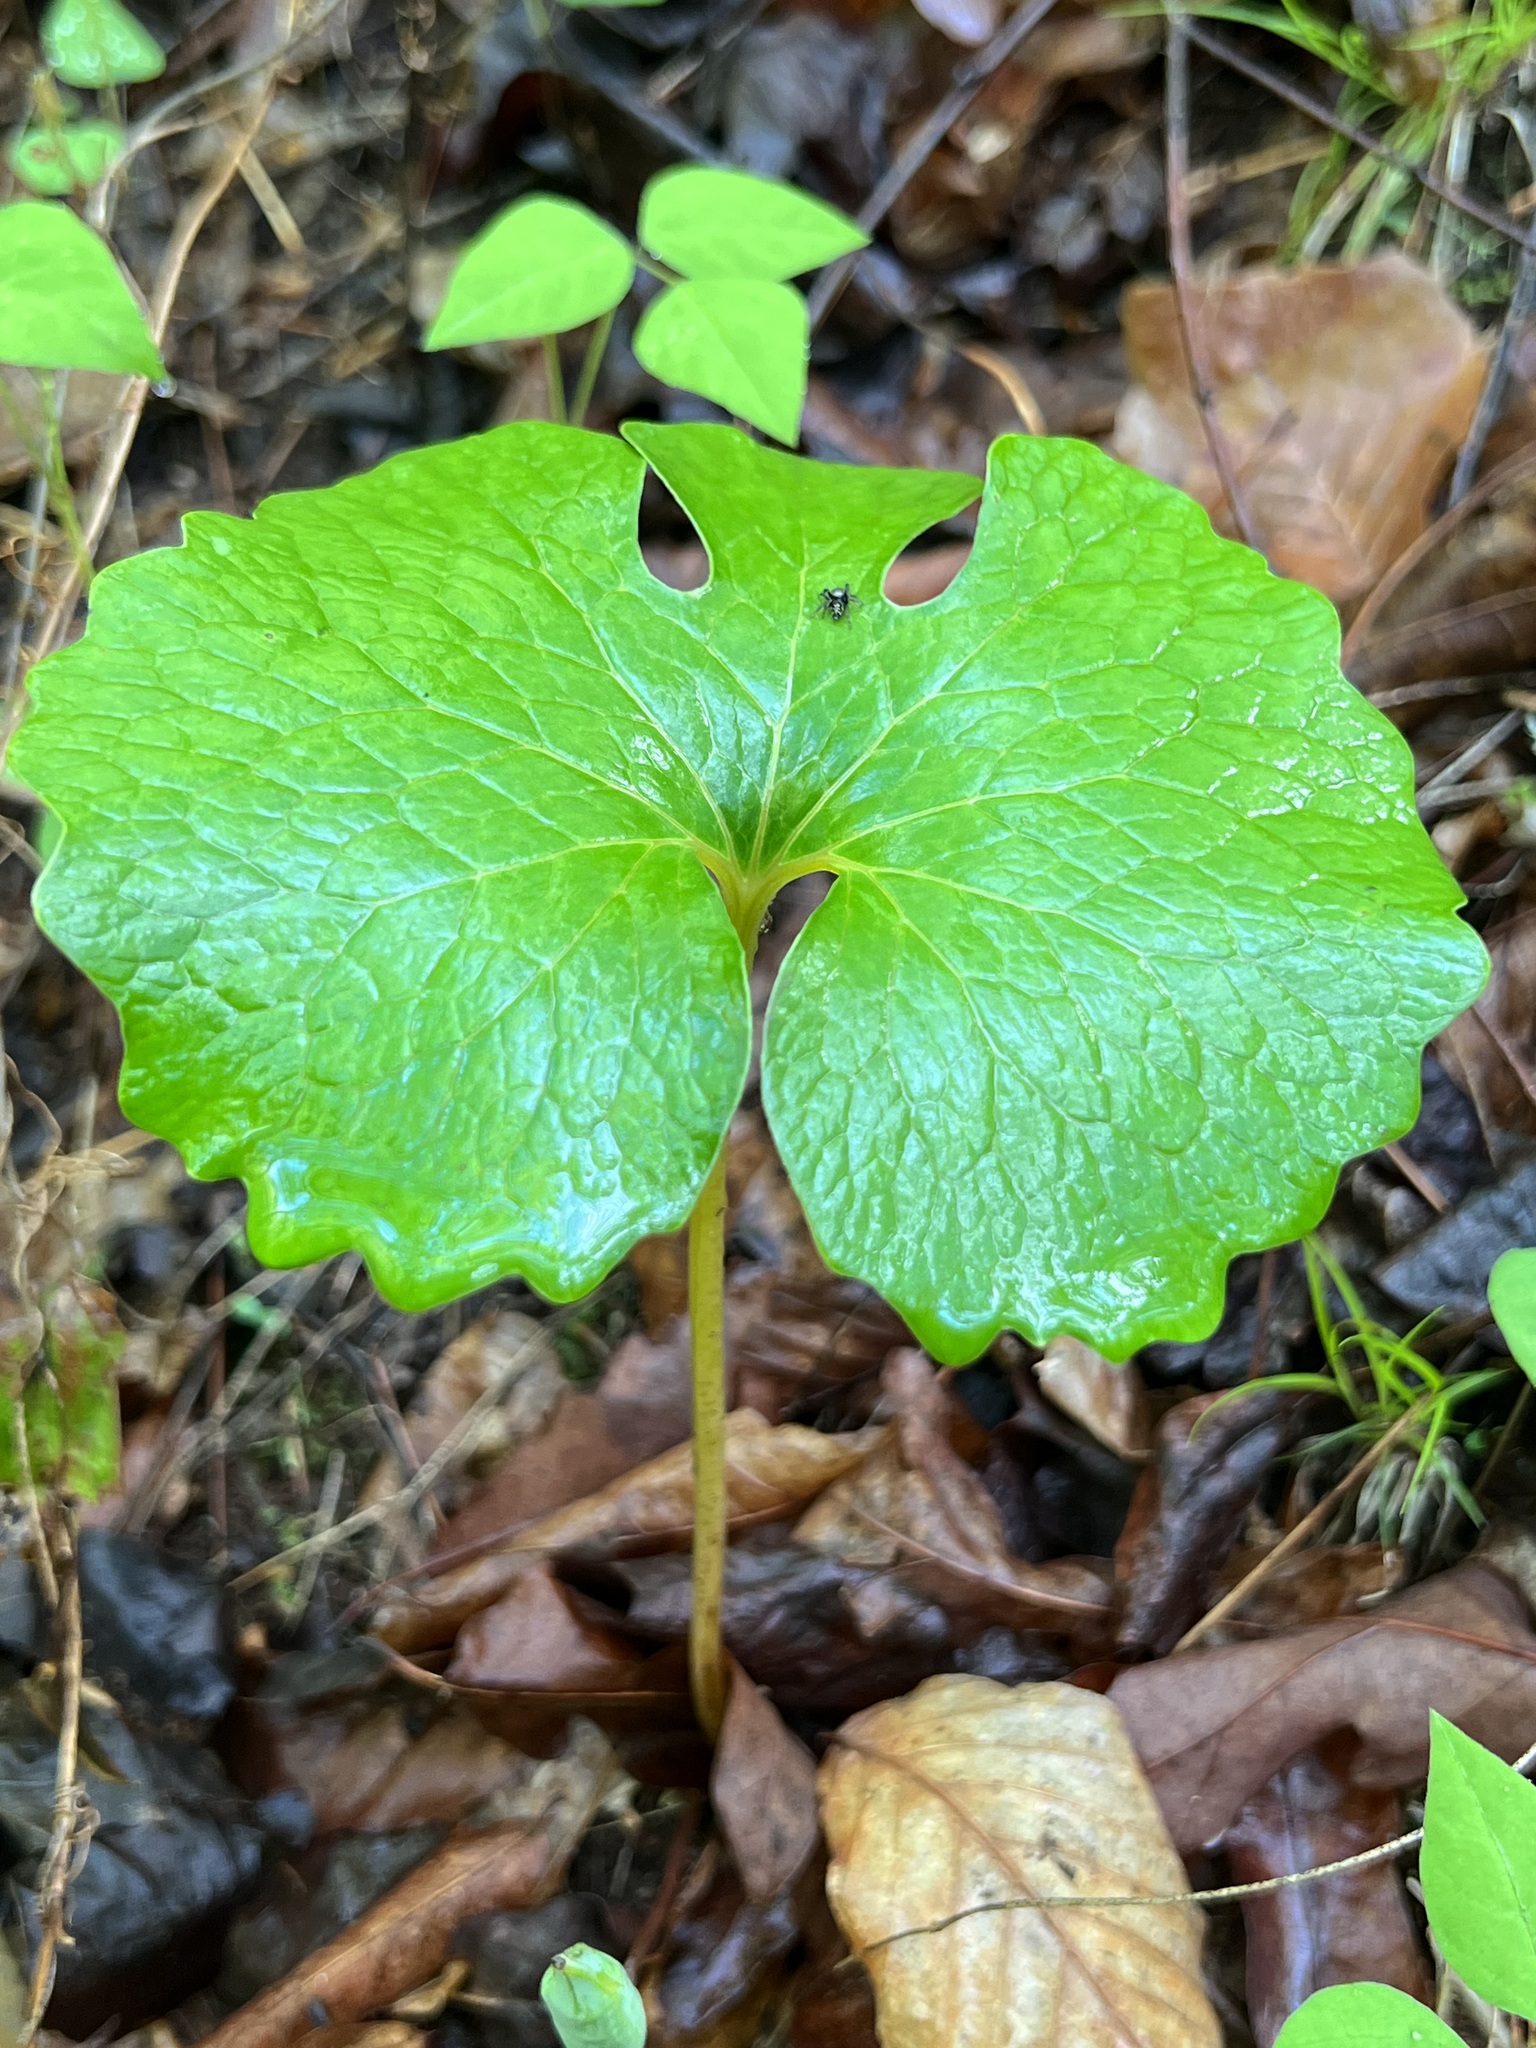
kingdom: Plantae
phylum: Tracheophyta
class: Magnoliopsida
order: Ranunculales
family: Papaveraceae
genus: Sanguinaria
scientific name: Sanguinaria canadensis
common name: Bloodroot
